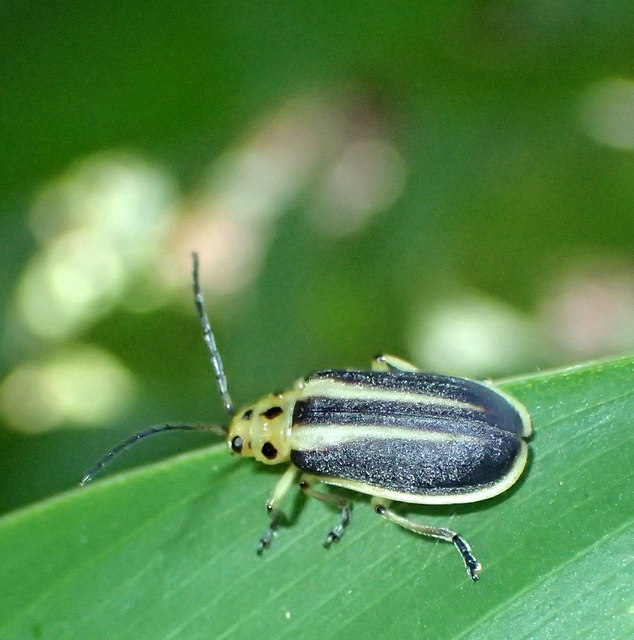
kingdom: Animalia
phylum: Arthropoda
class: Insecta
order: Coleoptera
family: Chrysomelidae
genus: Trirhabda
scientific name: Trirhabda bacharidis
